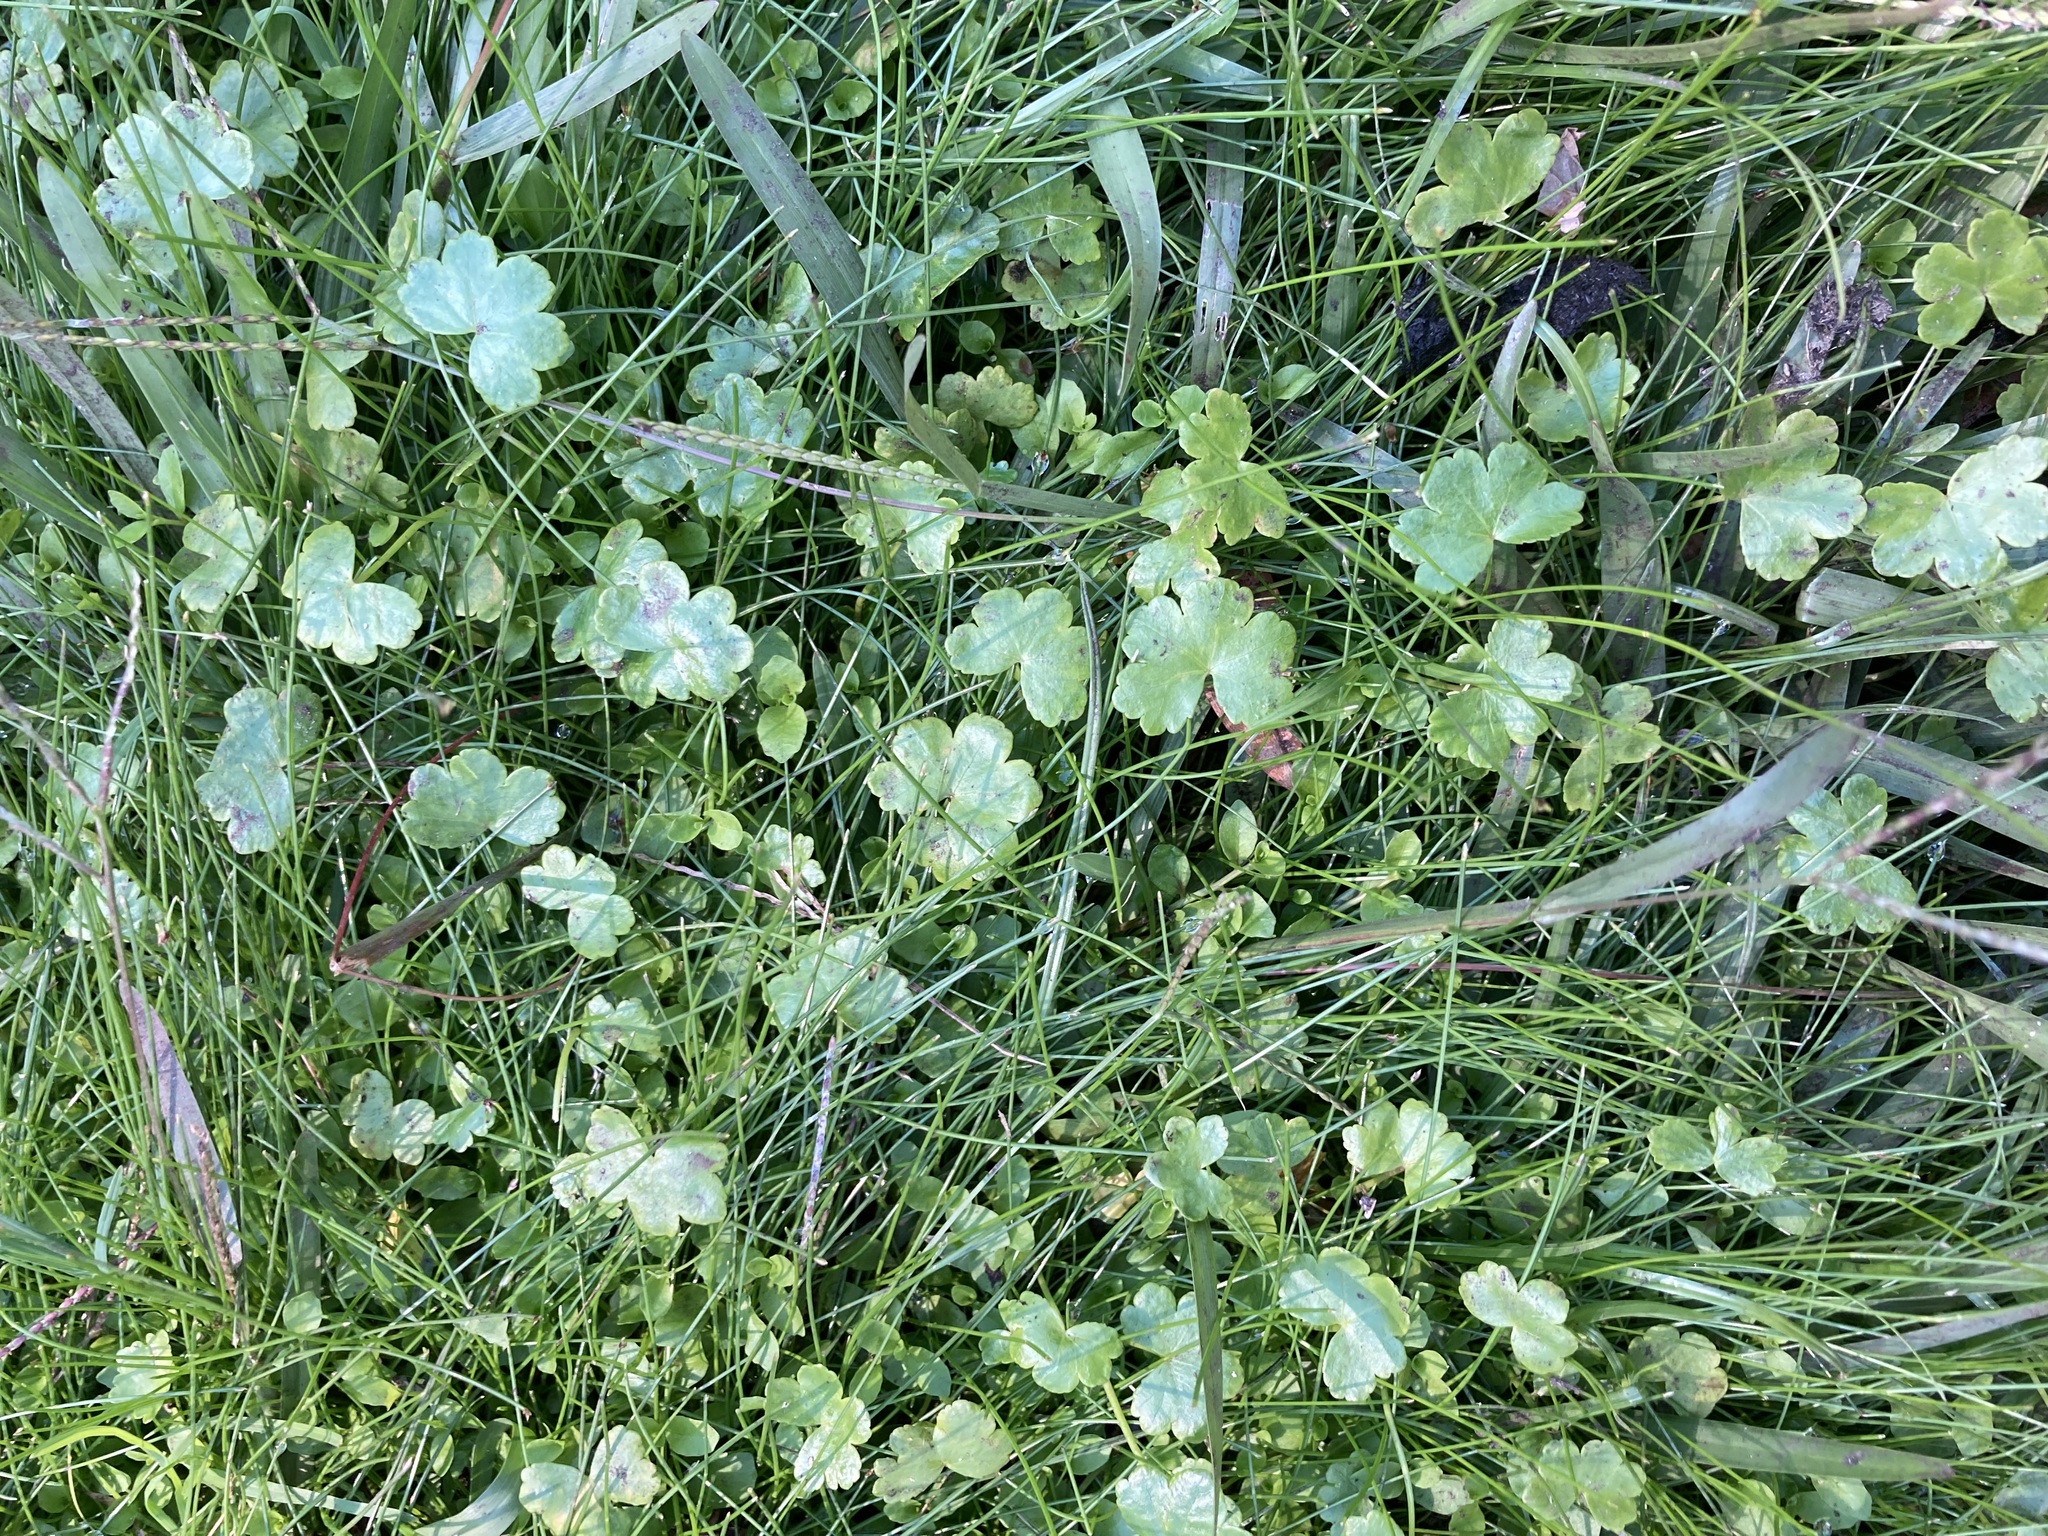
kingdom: Plantae
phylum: Tracheophyta
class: Magnoliopsida
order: Apiales
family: Araliaceae
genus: Hydrocotyle
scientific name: Hydrocotyle sibthorpioides
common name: Lawn marshpennywort
